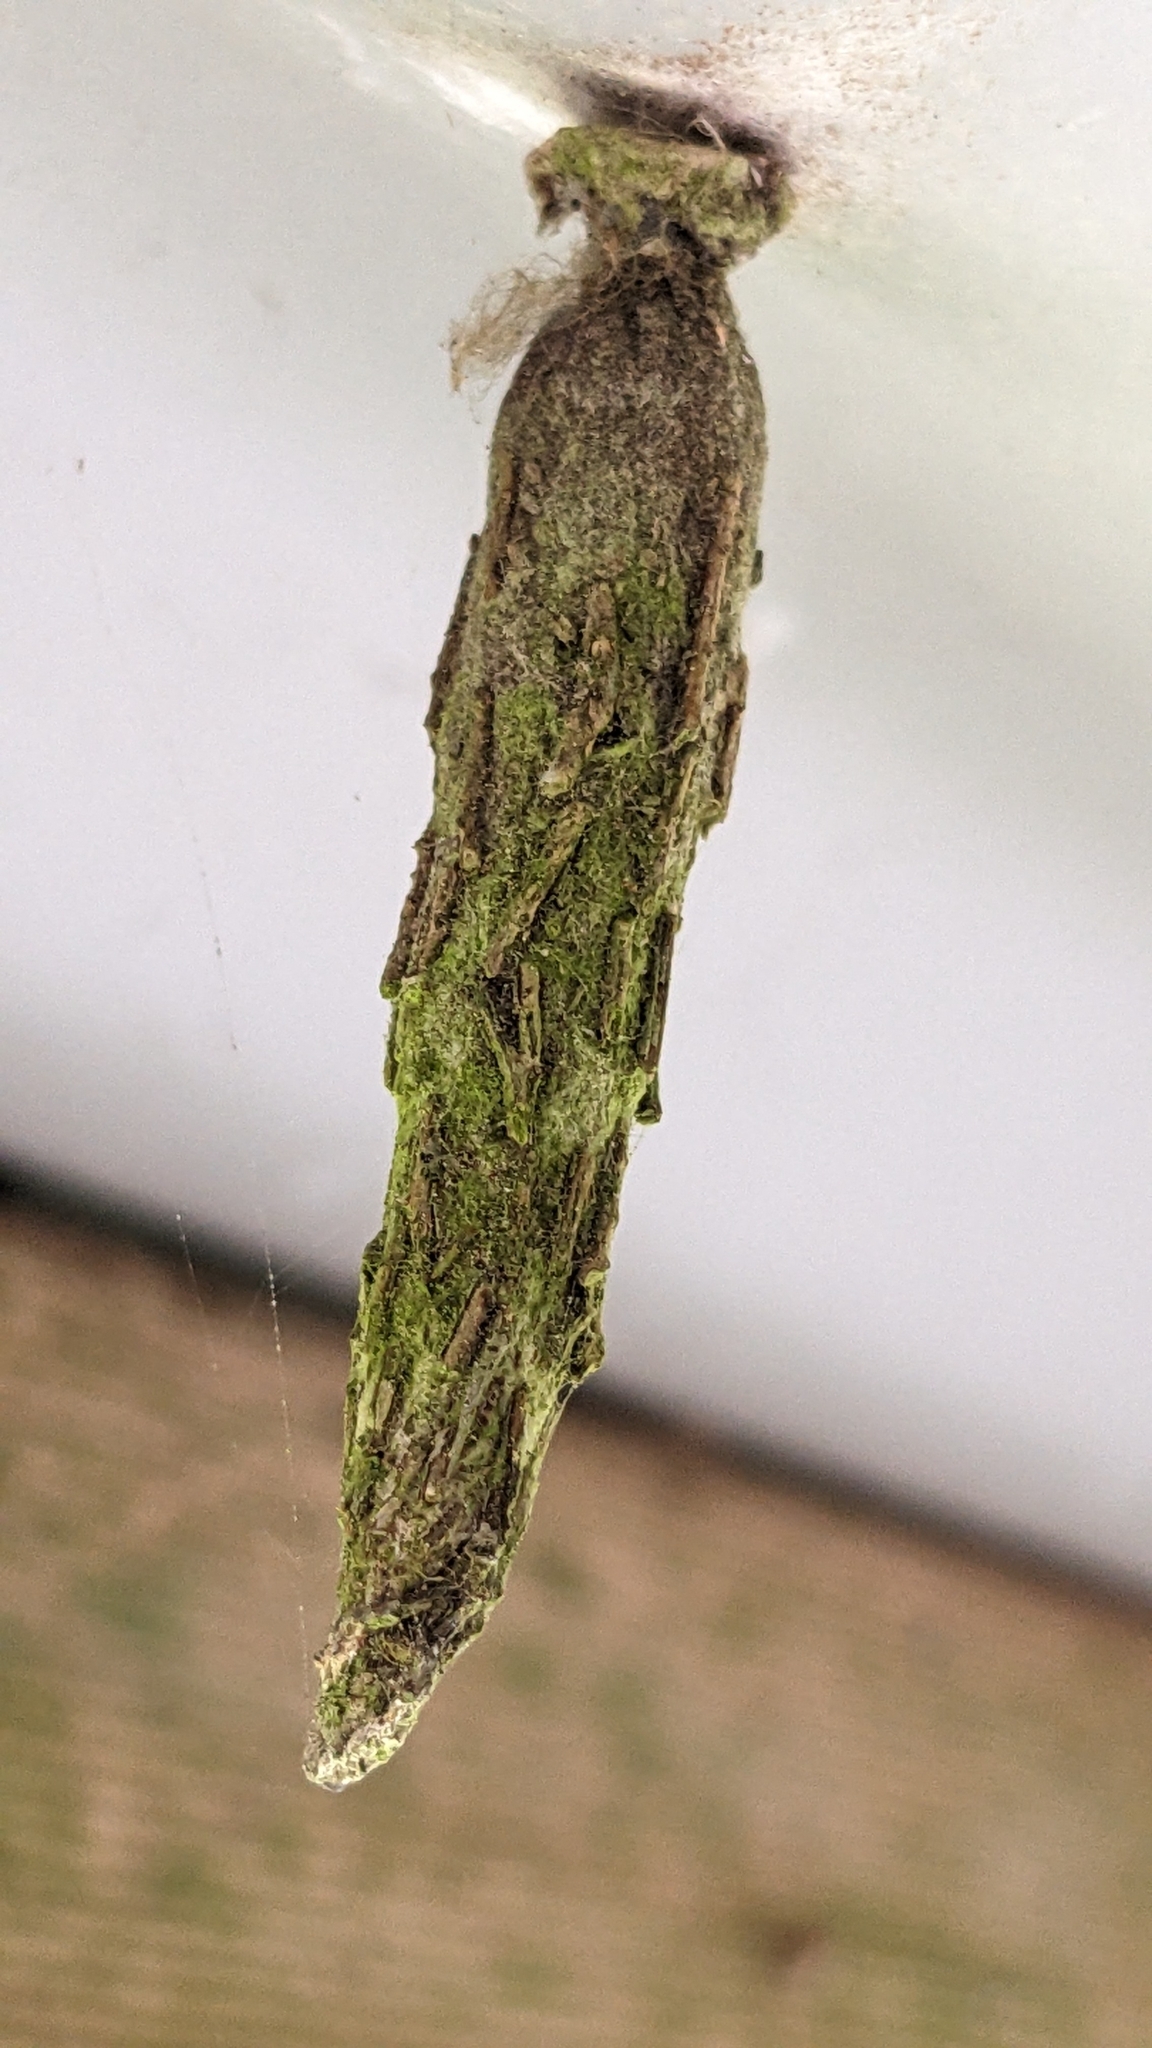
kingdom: Animalia
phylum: Arthropoda
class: Insecta
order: Lepidoptera
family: Psychidae
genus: Liothula
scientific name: Liothula omnivora
